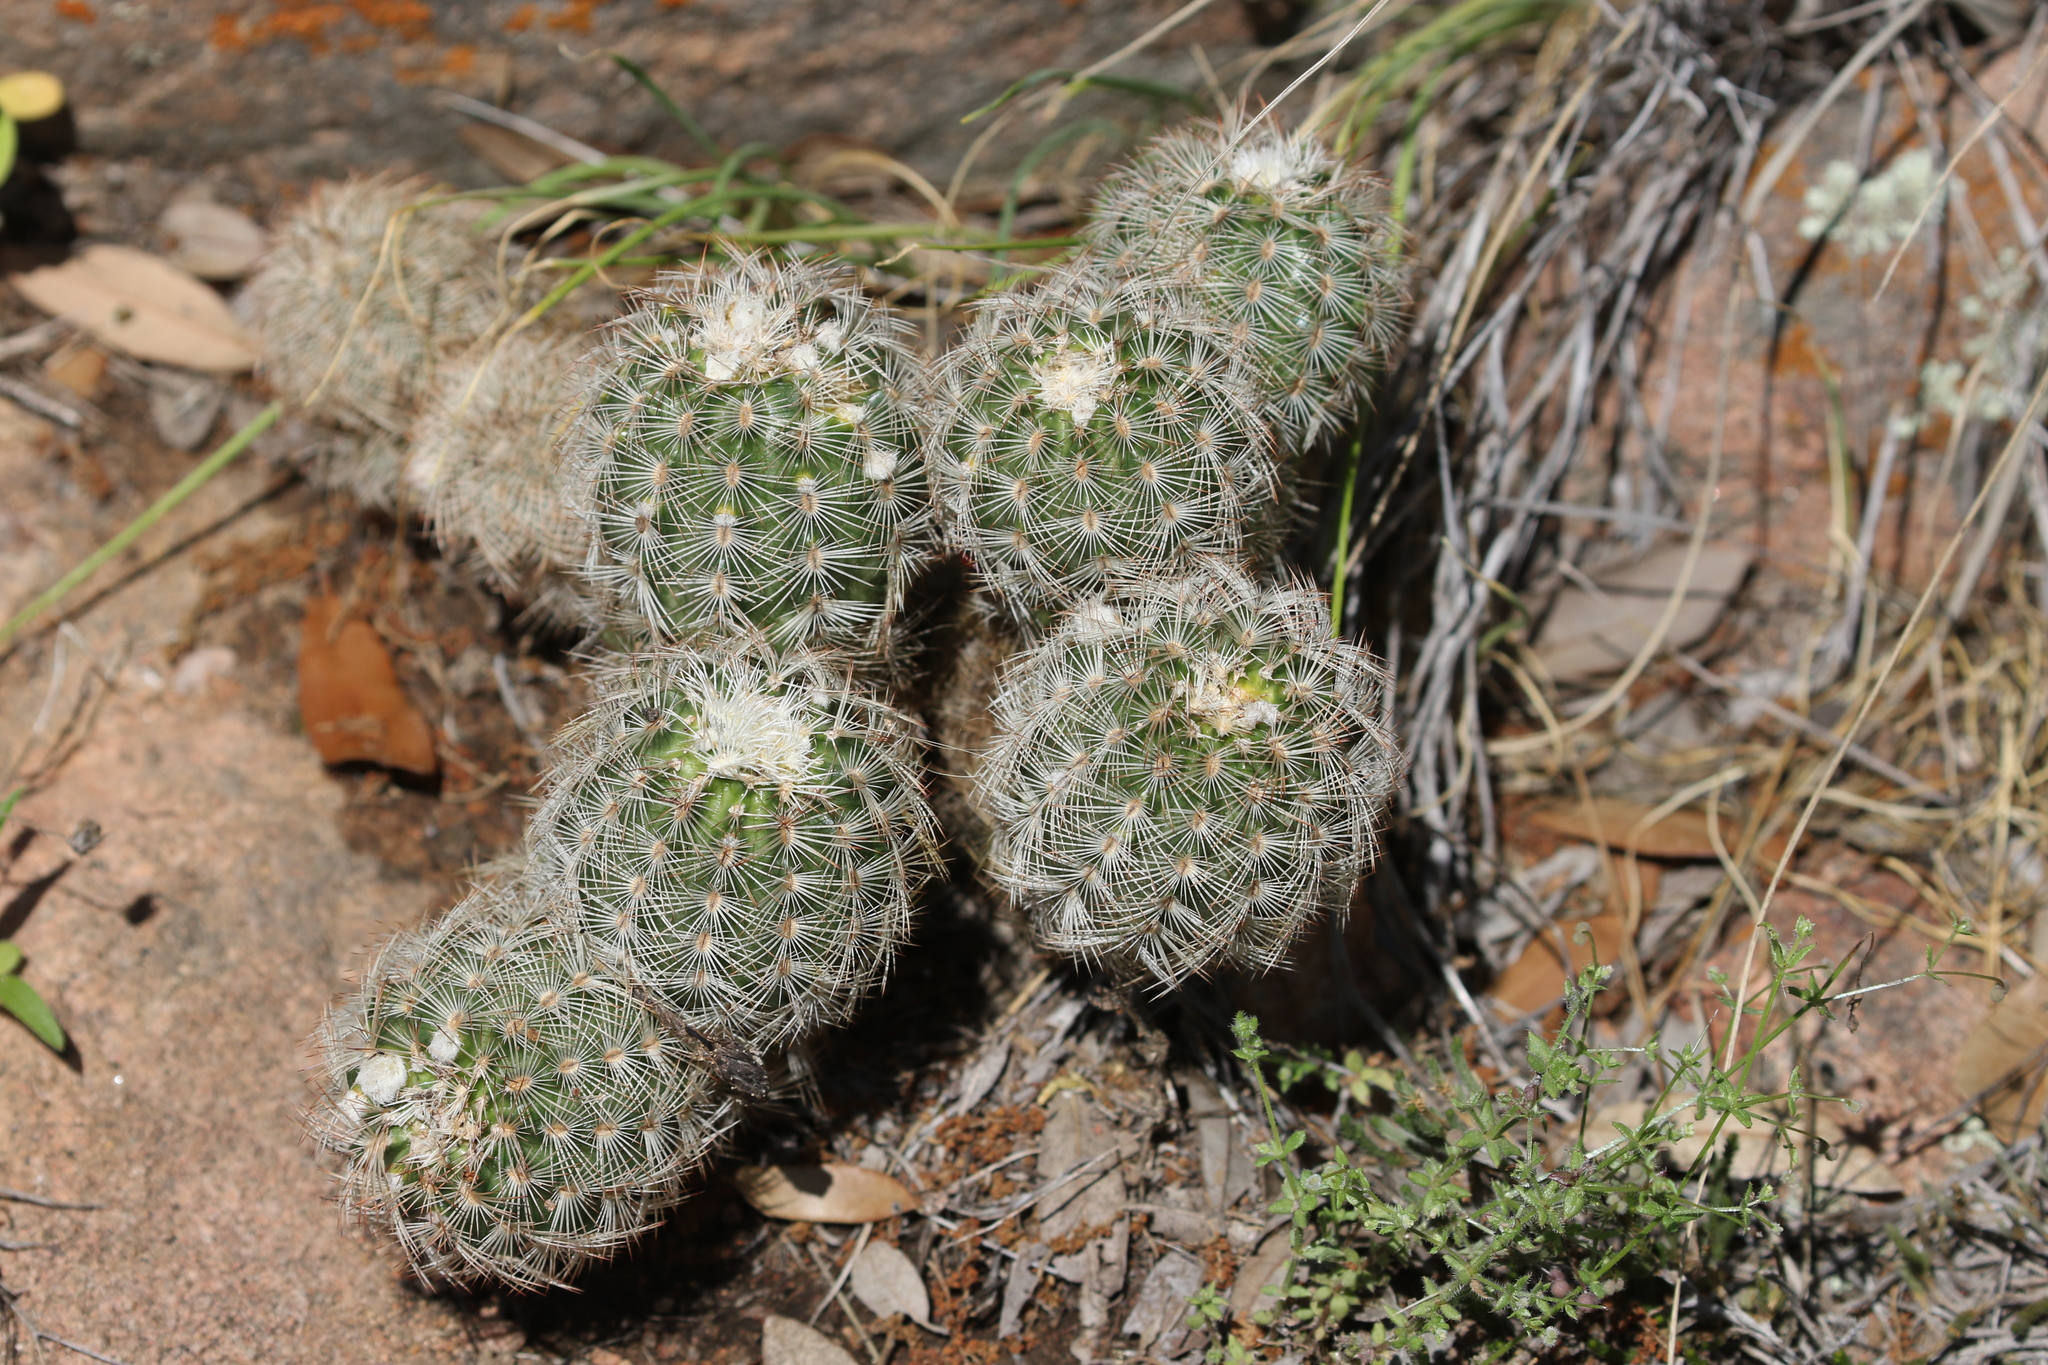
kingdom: Plantae
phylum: Tracheophyta
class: Magnoliopsida
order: Caryophyllales
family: Cactaceae
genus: Echinocereus
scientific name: Echinocereus reichenbachii
